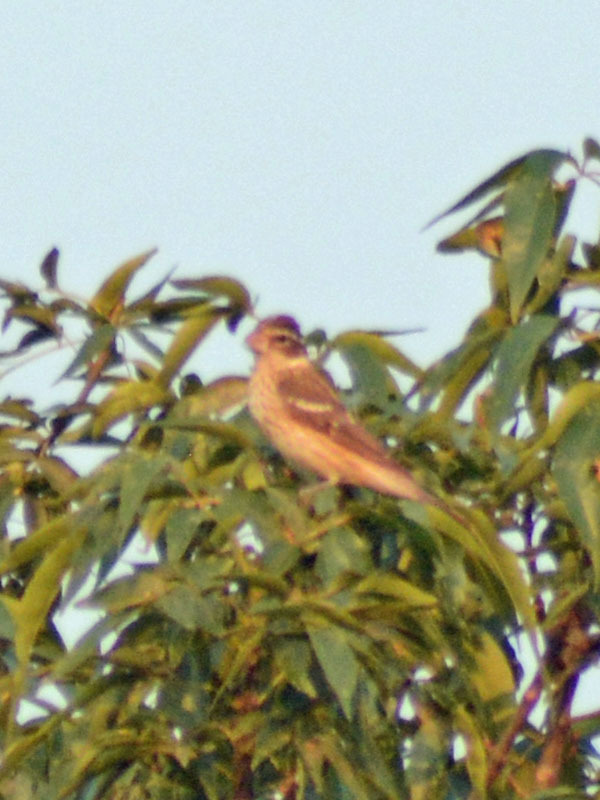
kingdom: Animalia
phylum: Chordata
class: Aves
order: Passeriformes
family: Cardinalidae
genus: Pheucticus
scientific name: Pheucticus ludovicianus
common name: Rose-breasted grosbeak
